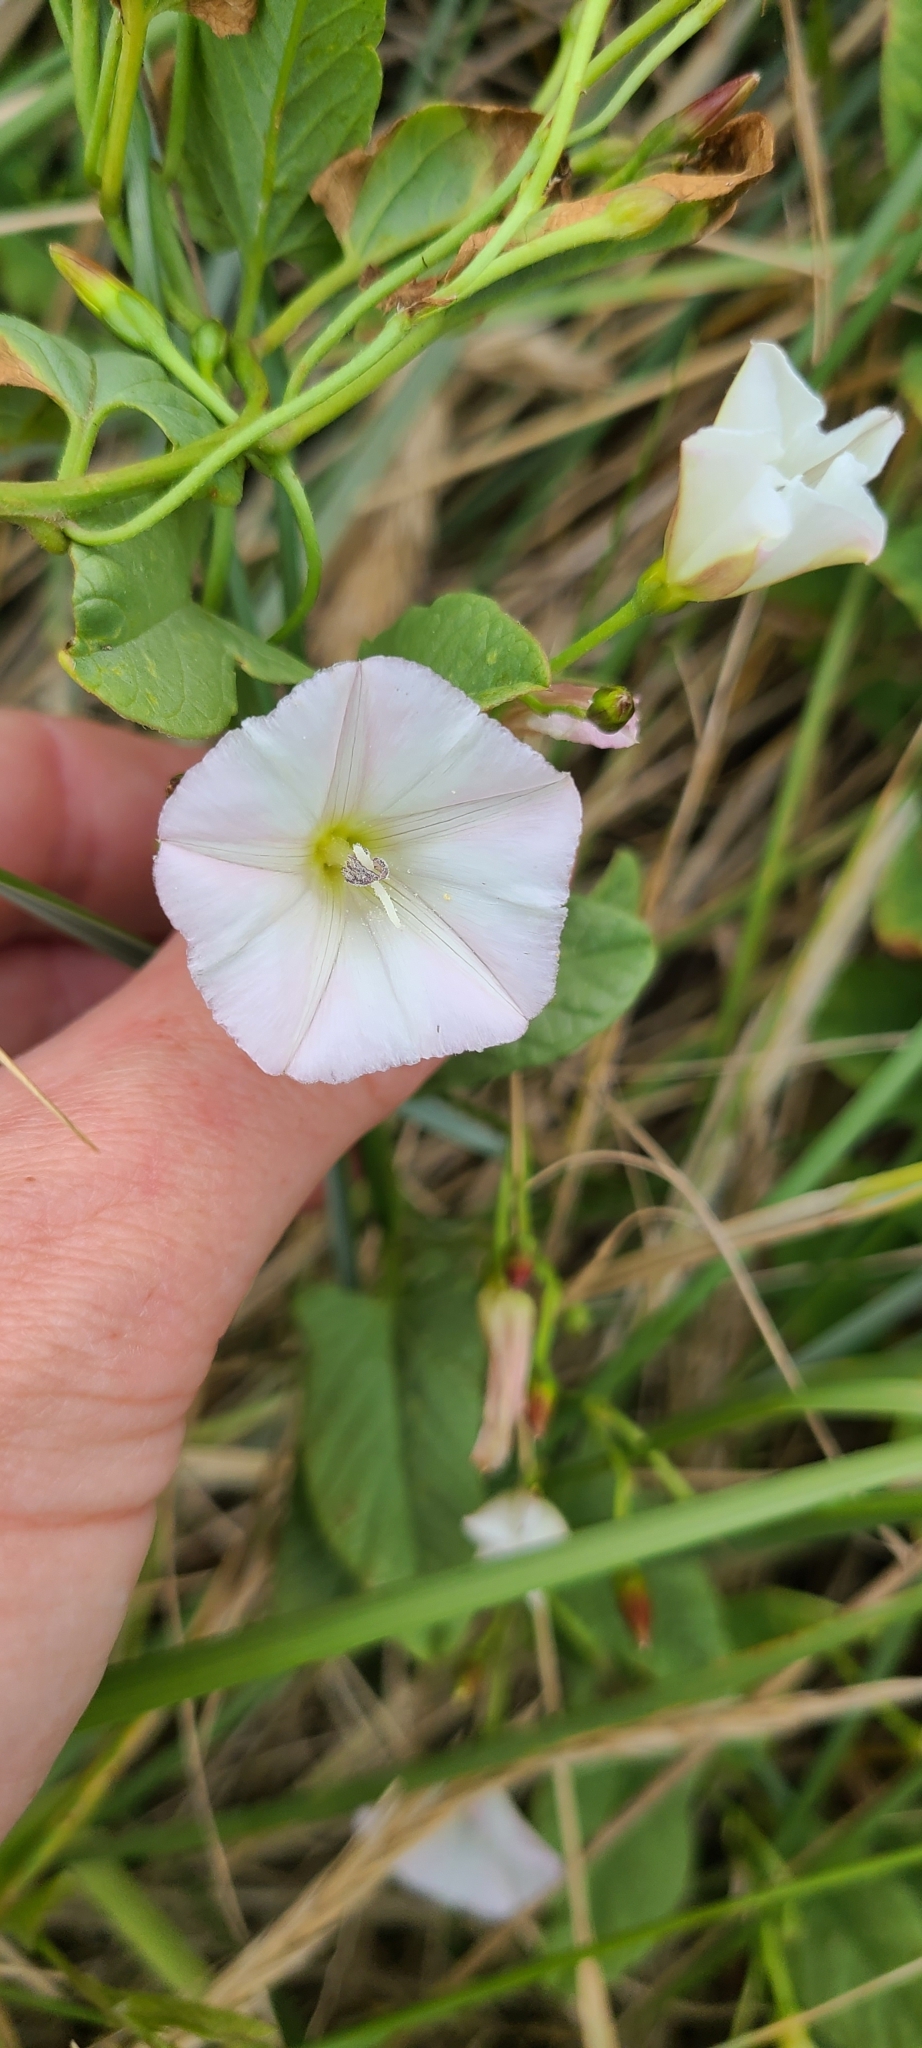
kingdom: Plantae
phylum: Tracheophyta
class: Magnoliopsida
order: Solanales
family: Convolvulaceae
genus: Convolvulus
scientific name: Convolvulus waitaha
